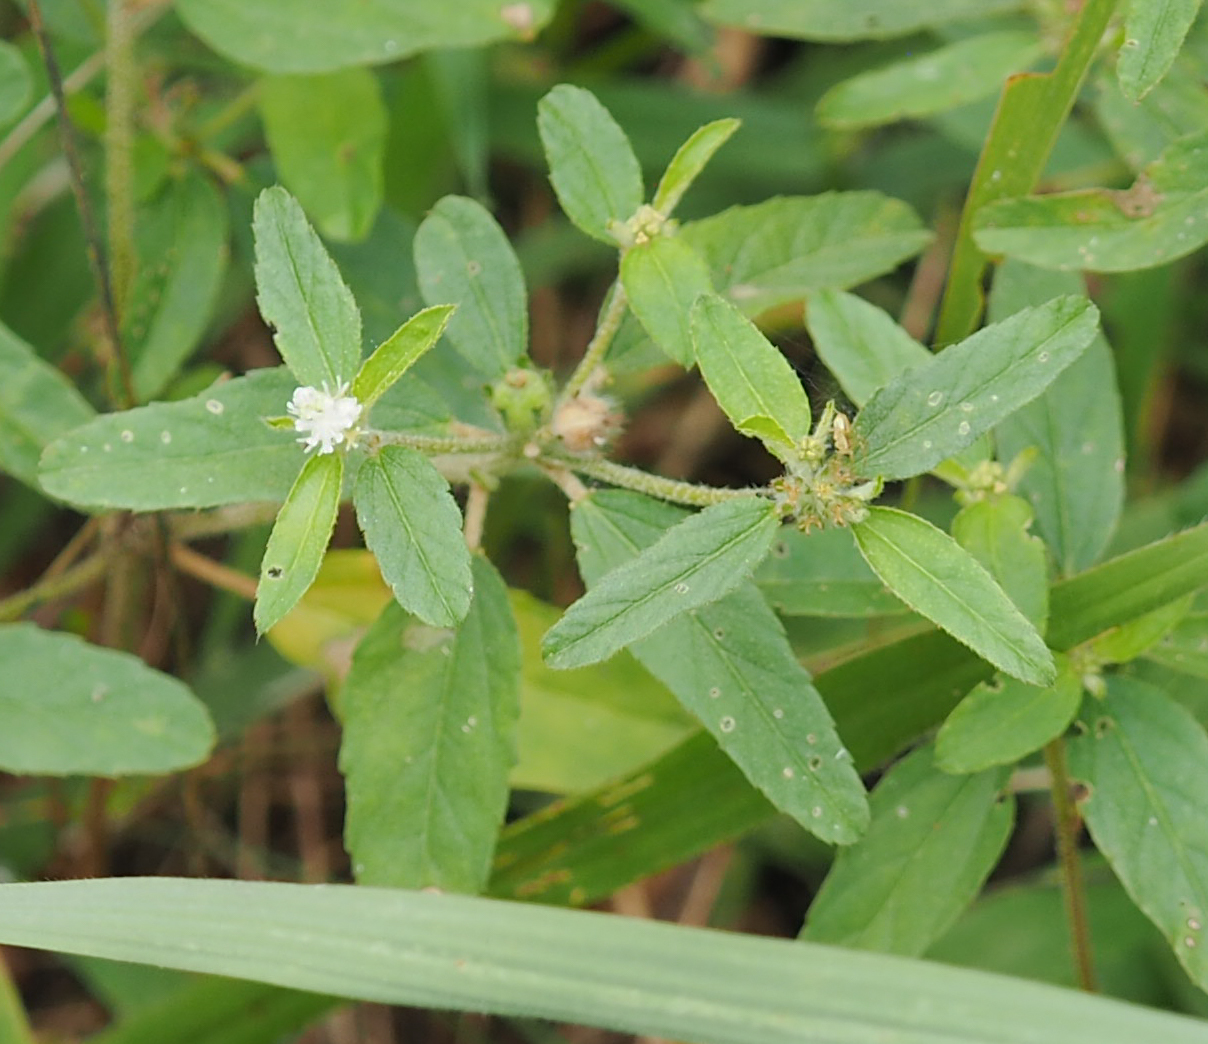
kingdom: Plantae
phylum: Tracheophyta
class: Magnoliopsida
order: Malpighiales
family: Euphorbiaceae
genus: Croton
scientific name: Croton glandulosus
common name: Tropic croton
